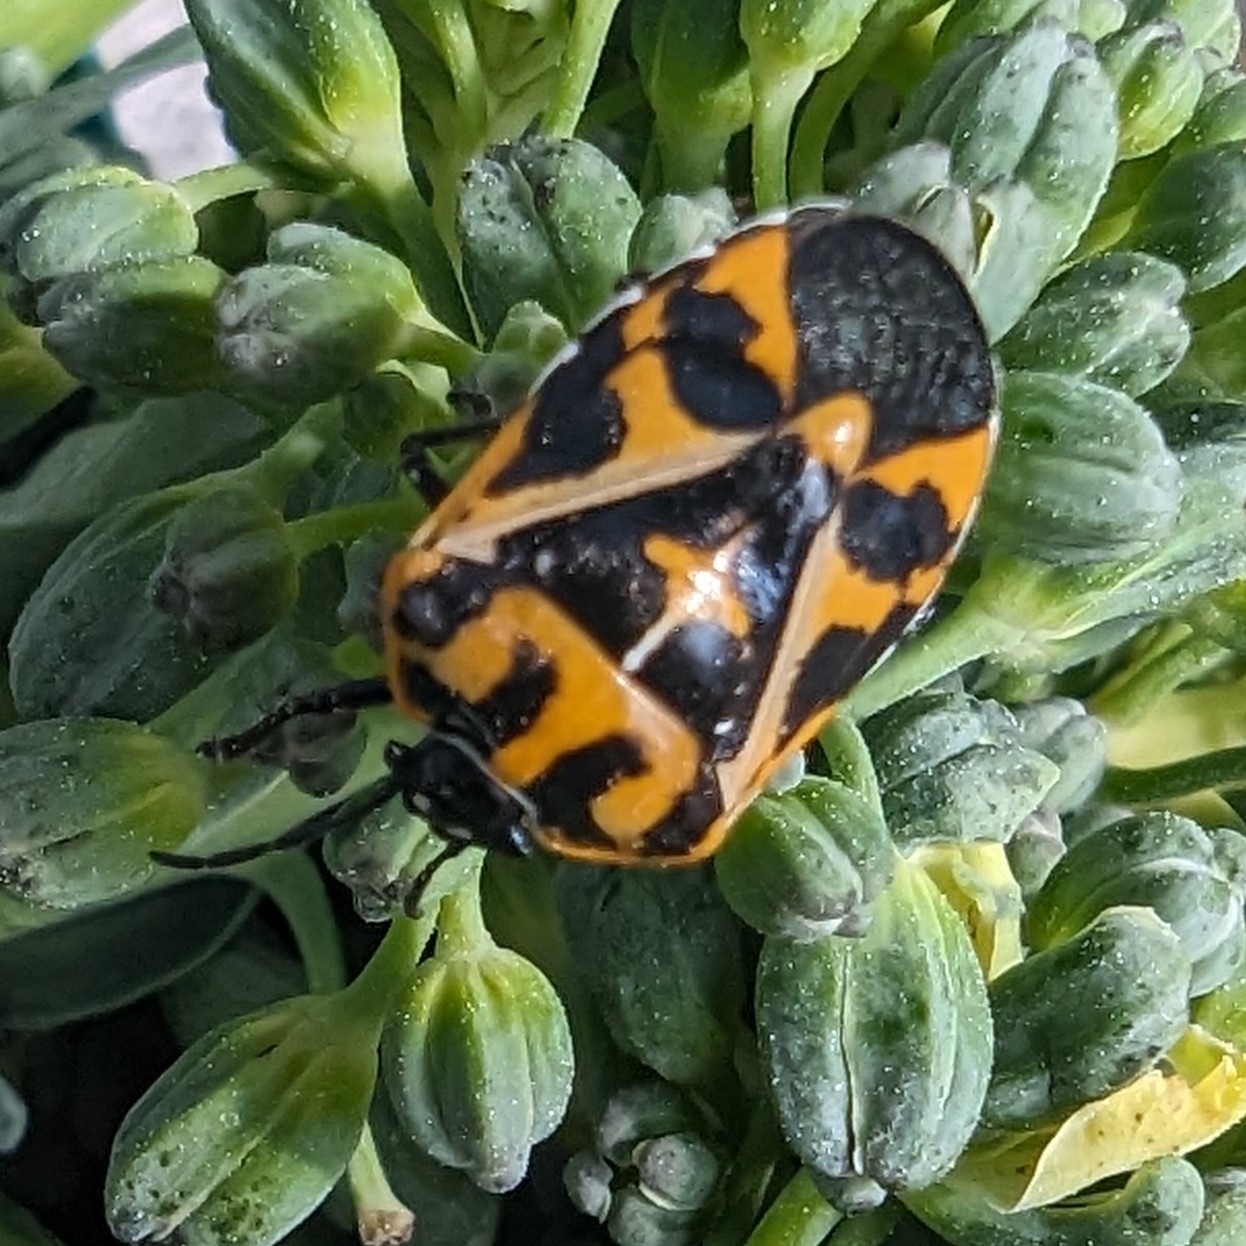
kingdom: Animalia
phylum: Arthropoda
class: Insecta
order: Hemiptera
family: Pentatomidae
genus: Murgantia
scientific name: Murgantia histrionica
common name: Harlequin bug
